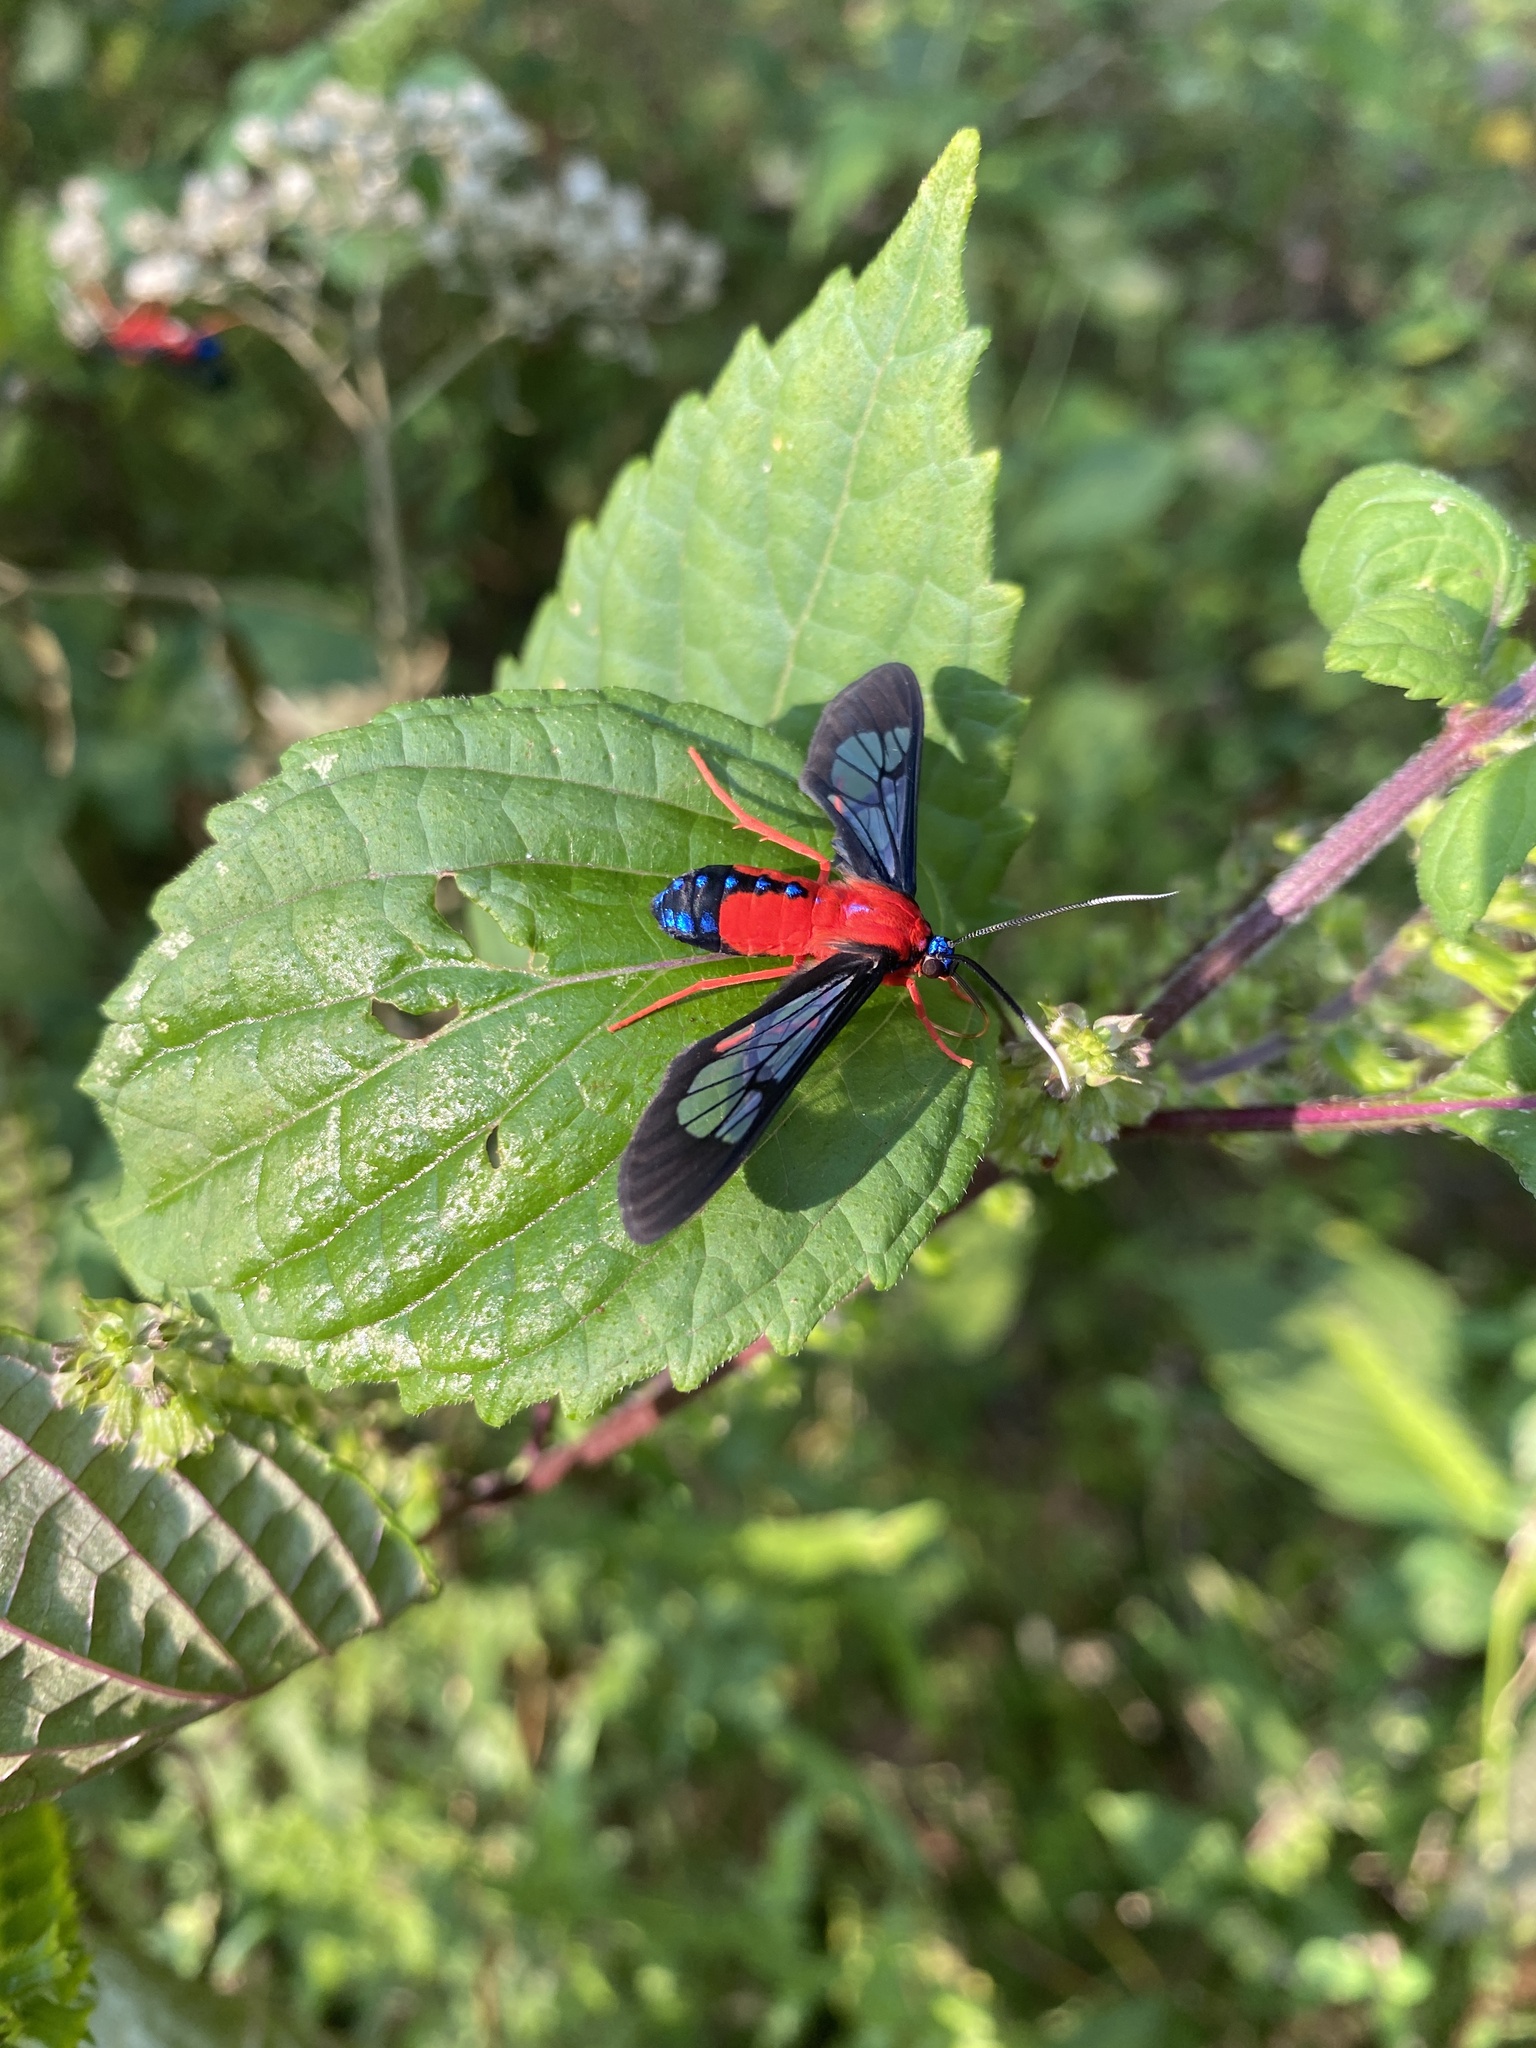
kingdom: Animalia
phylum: Arthropoda
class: Insecta
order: Lepidoptera
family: Erebidae
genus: Cosmosoma
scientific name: Cosmosoma myrodora
